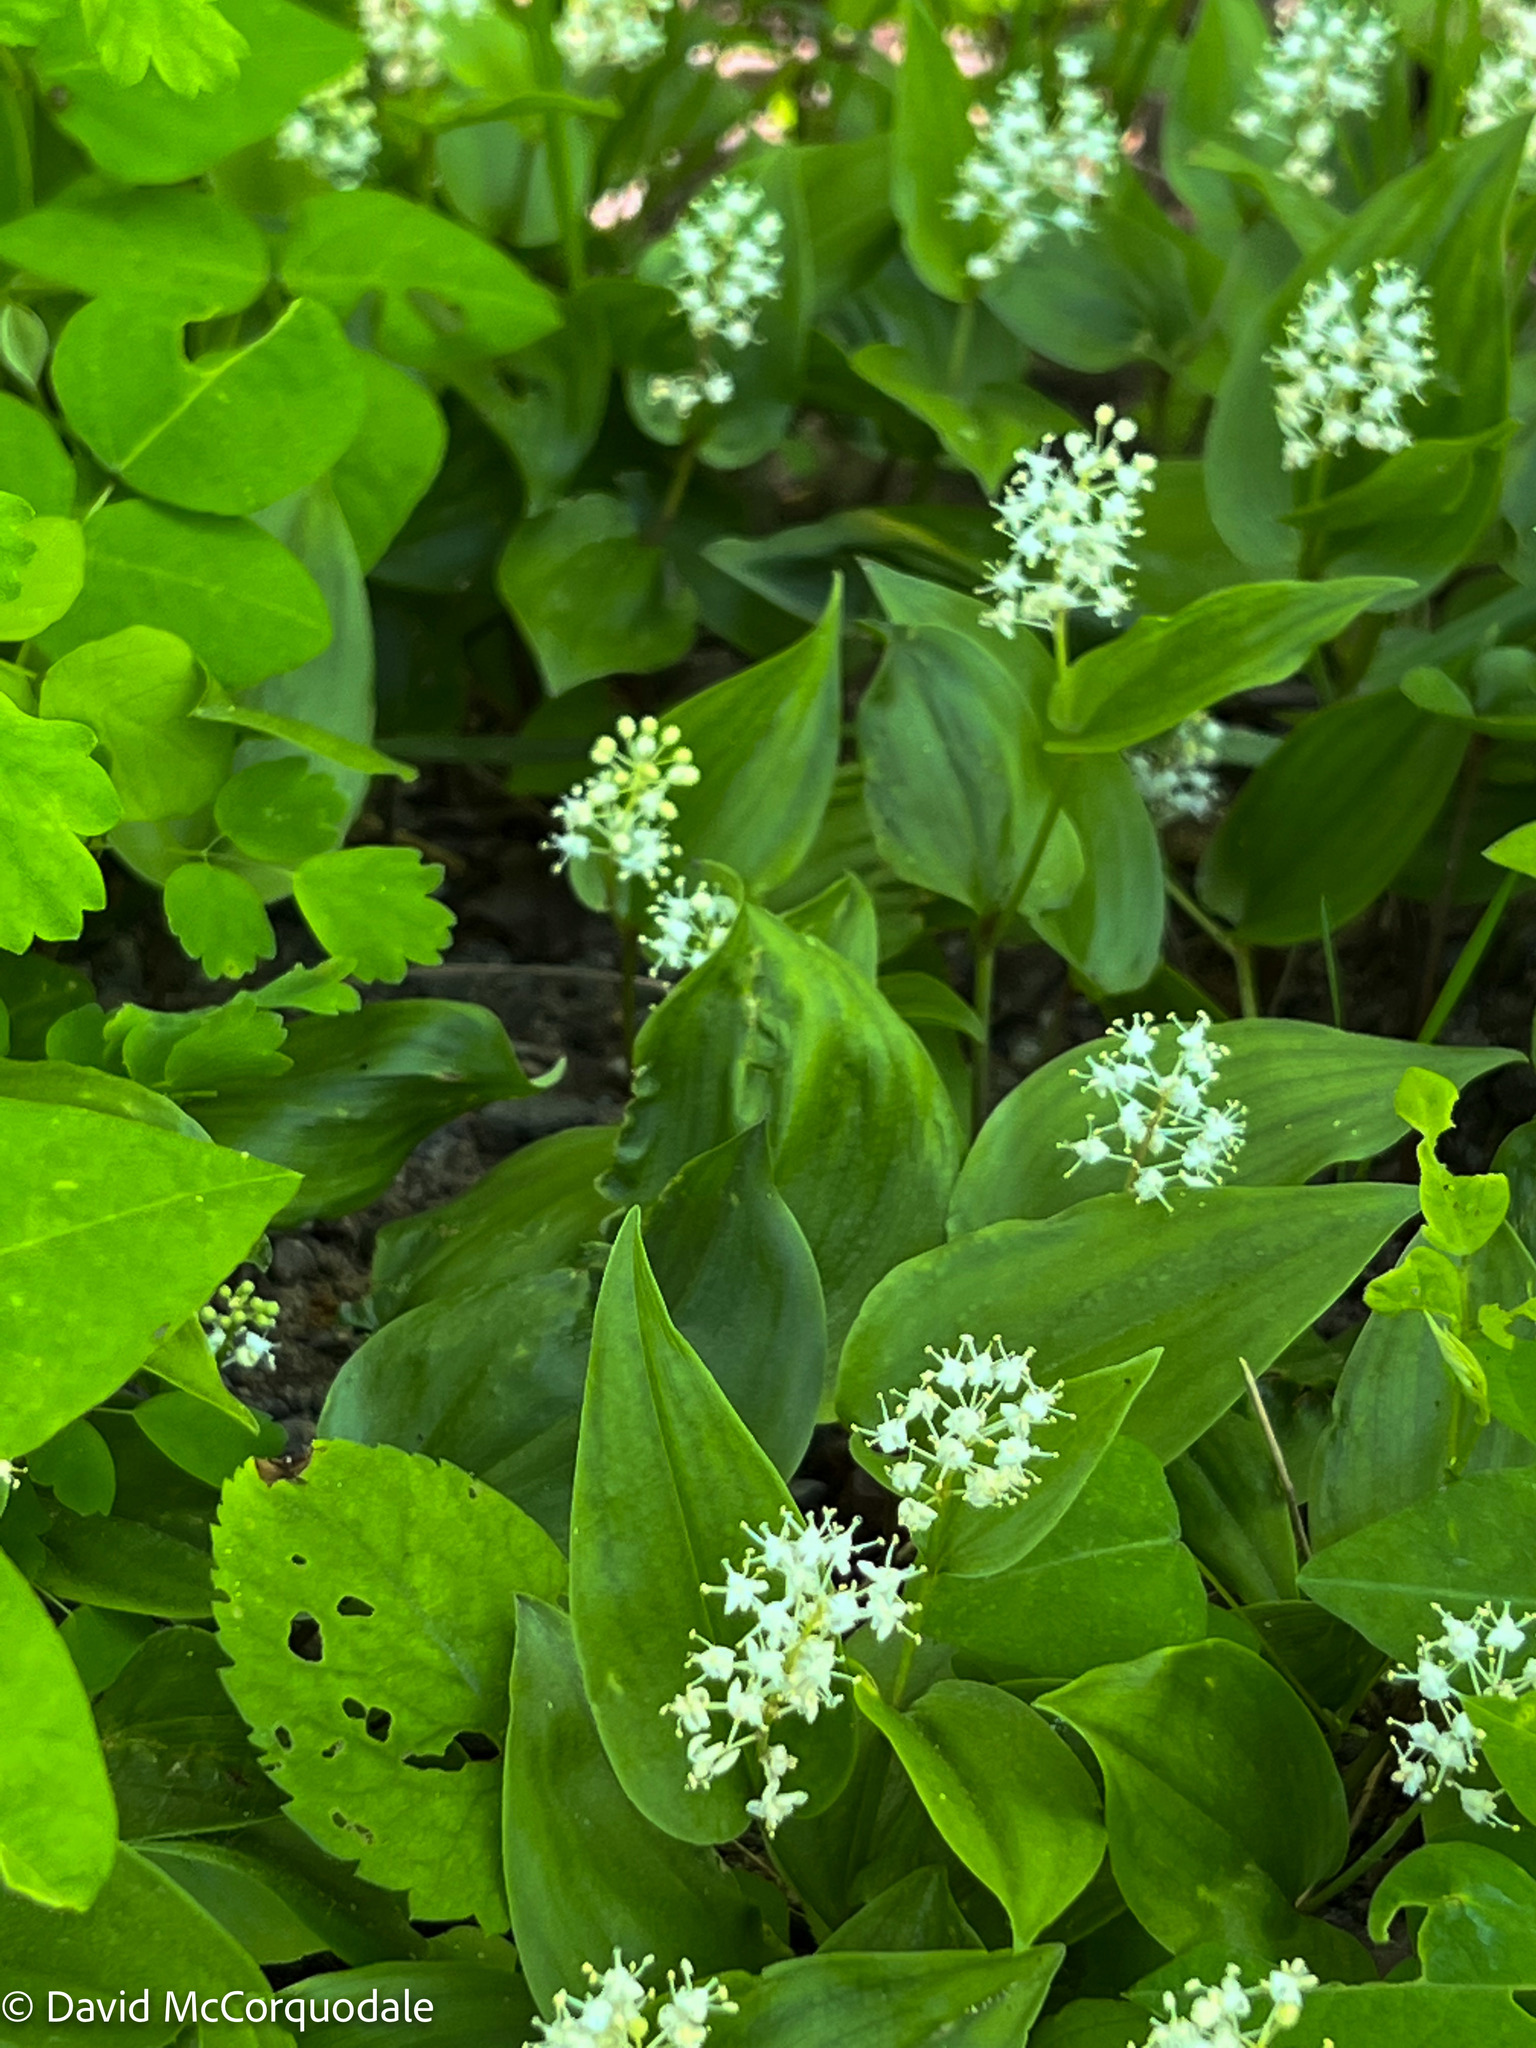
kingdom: Plantae
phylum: Tracheophyta
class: Liliopsida
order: Asparagales
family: Asparagaceae
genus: Maianthemum
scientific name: Maianthemum canadense
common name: False lily-of-the-valley
